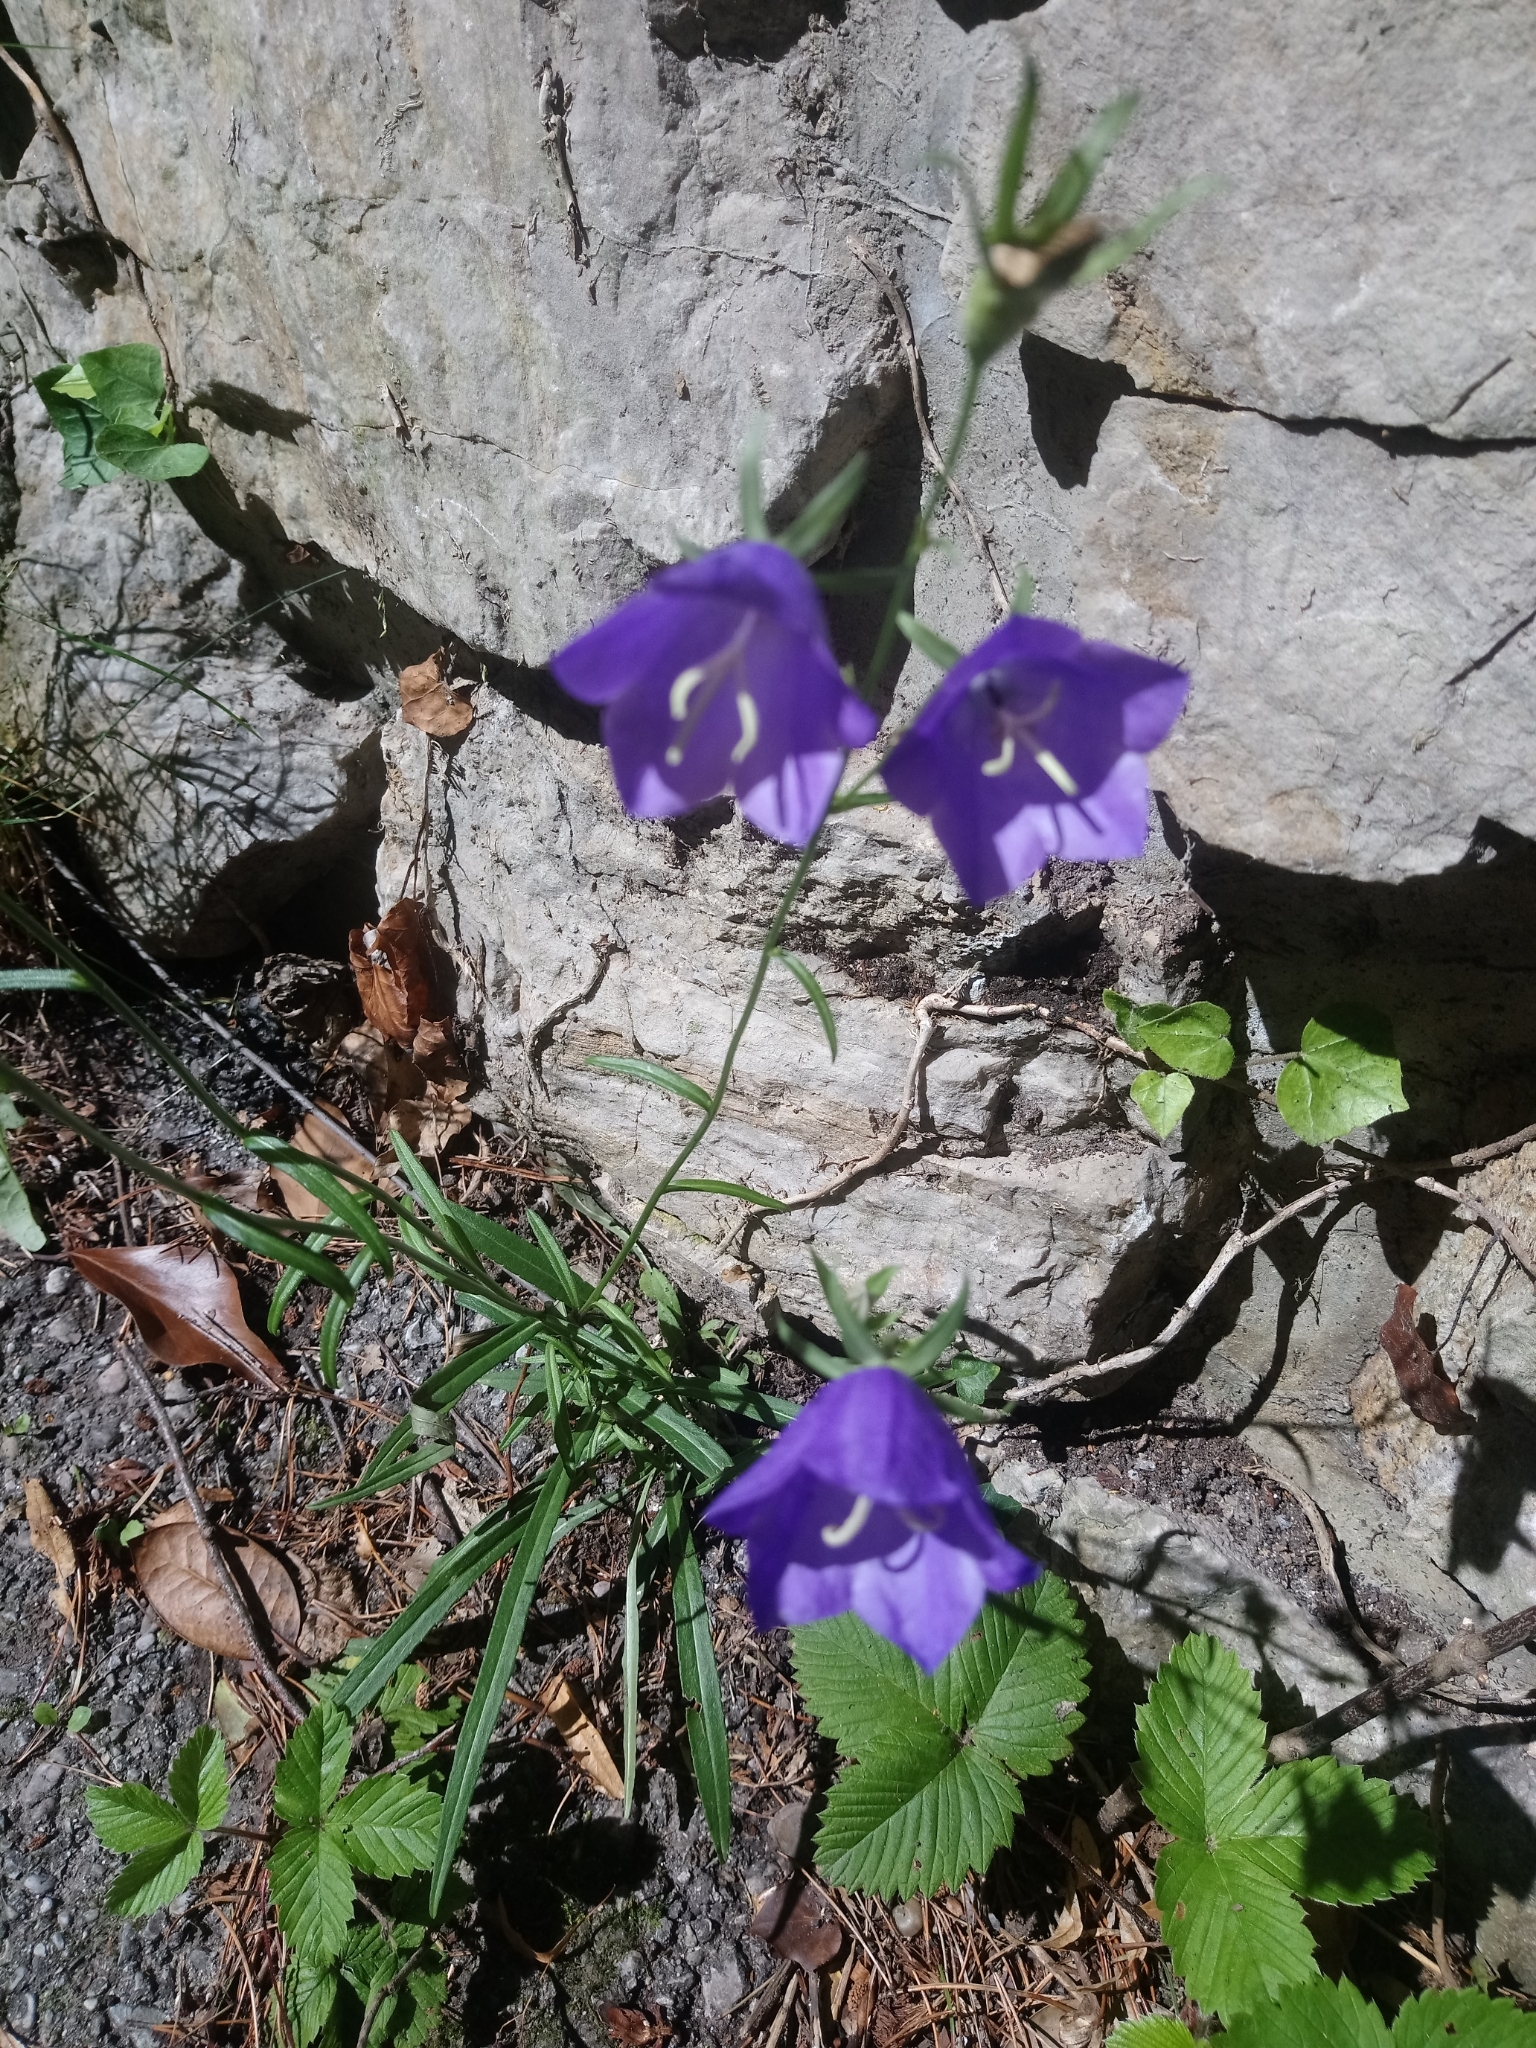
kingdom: Plantae
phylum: Tracheophyta
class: Magnoliopsida
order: Asterales
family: Campanulaceae
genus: Campanula
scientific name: Campanula persicifolia
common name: Peach-leaved bellflower
